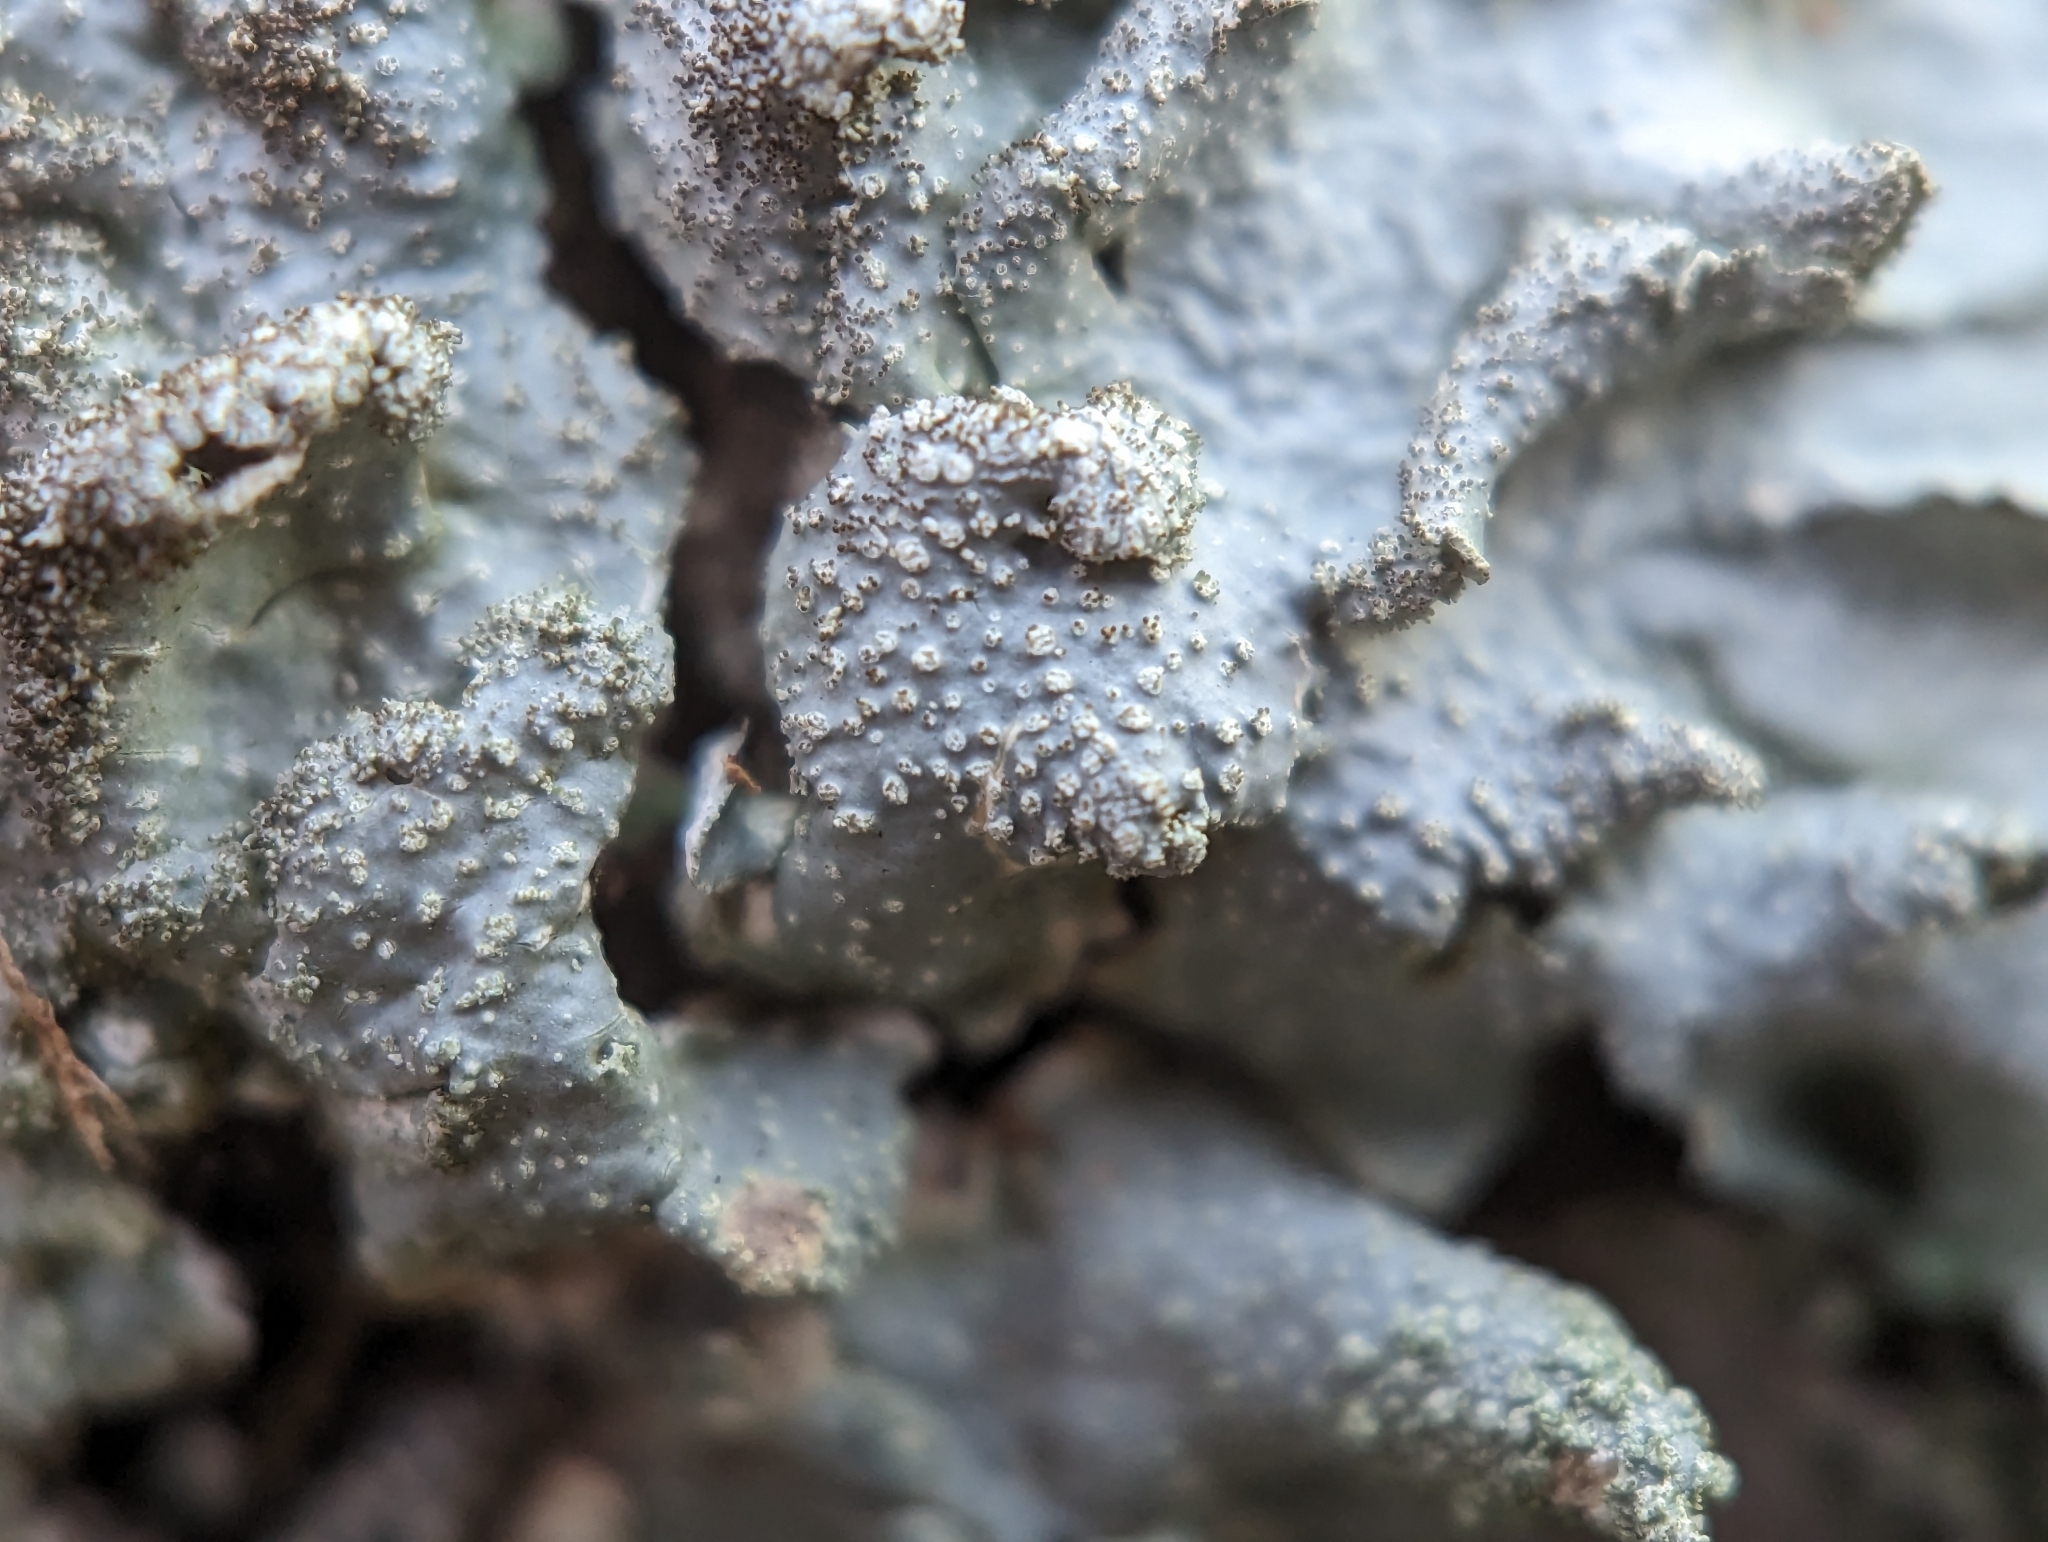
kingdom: Fungi
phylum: Ascomycota
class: Lecanoromycetes
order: Lecanorales
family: Parmeliaceae
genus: Punctelia
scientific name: Punctelia rudecta
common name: Rough speckled shield lichen
